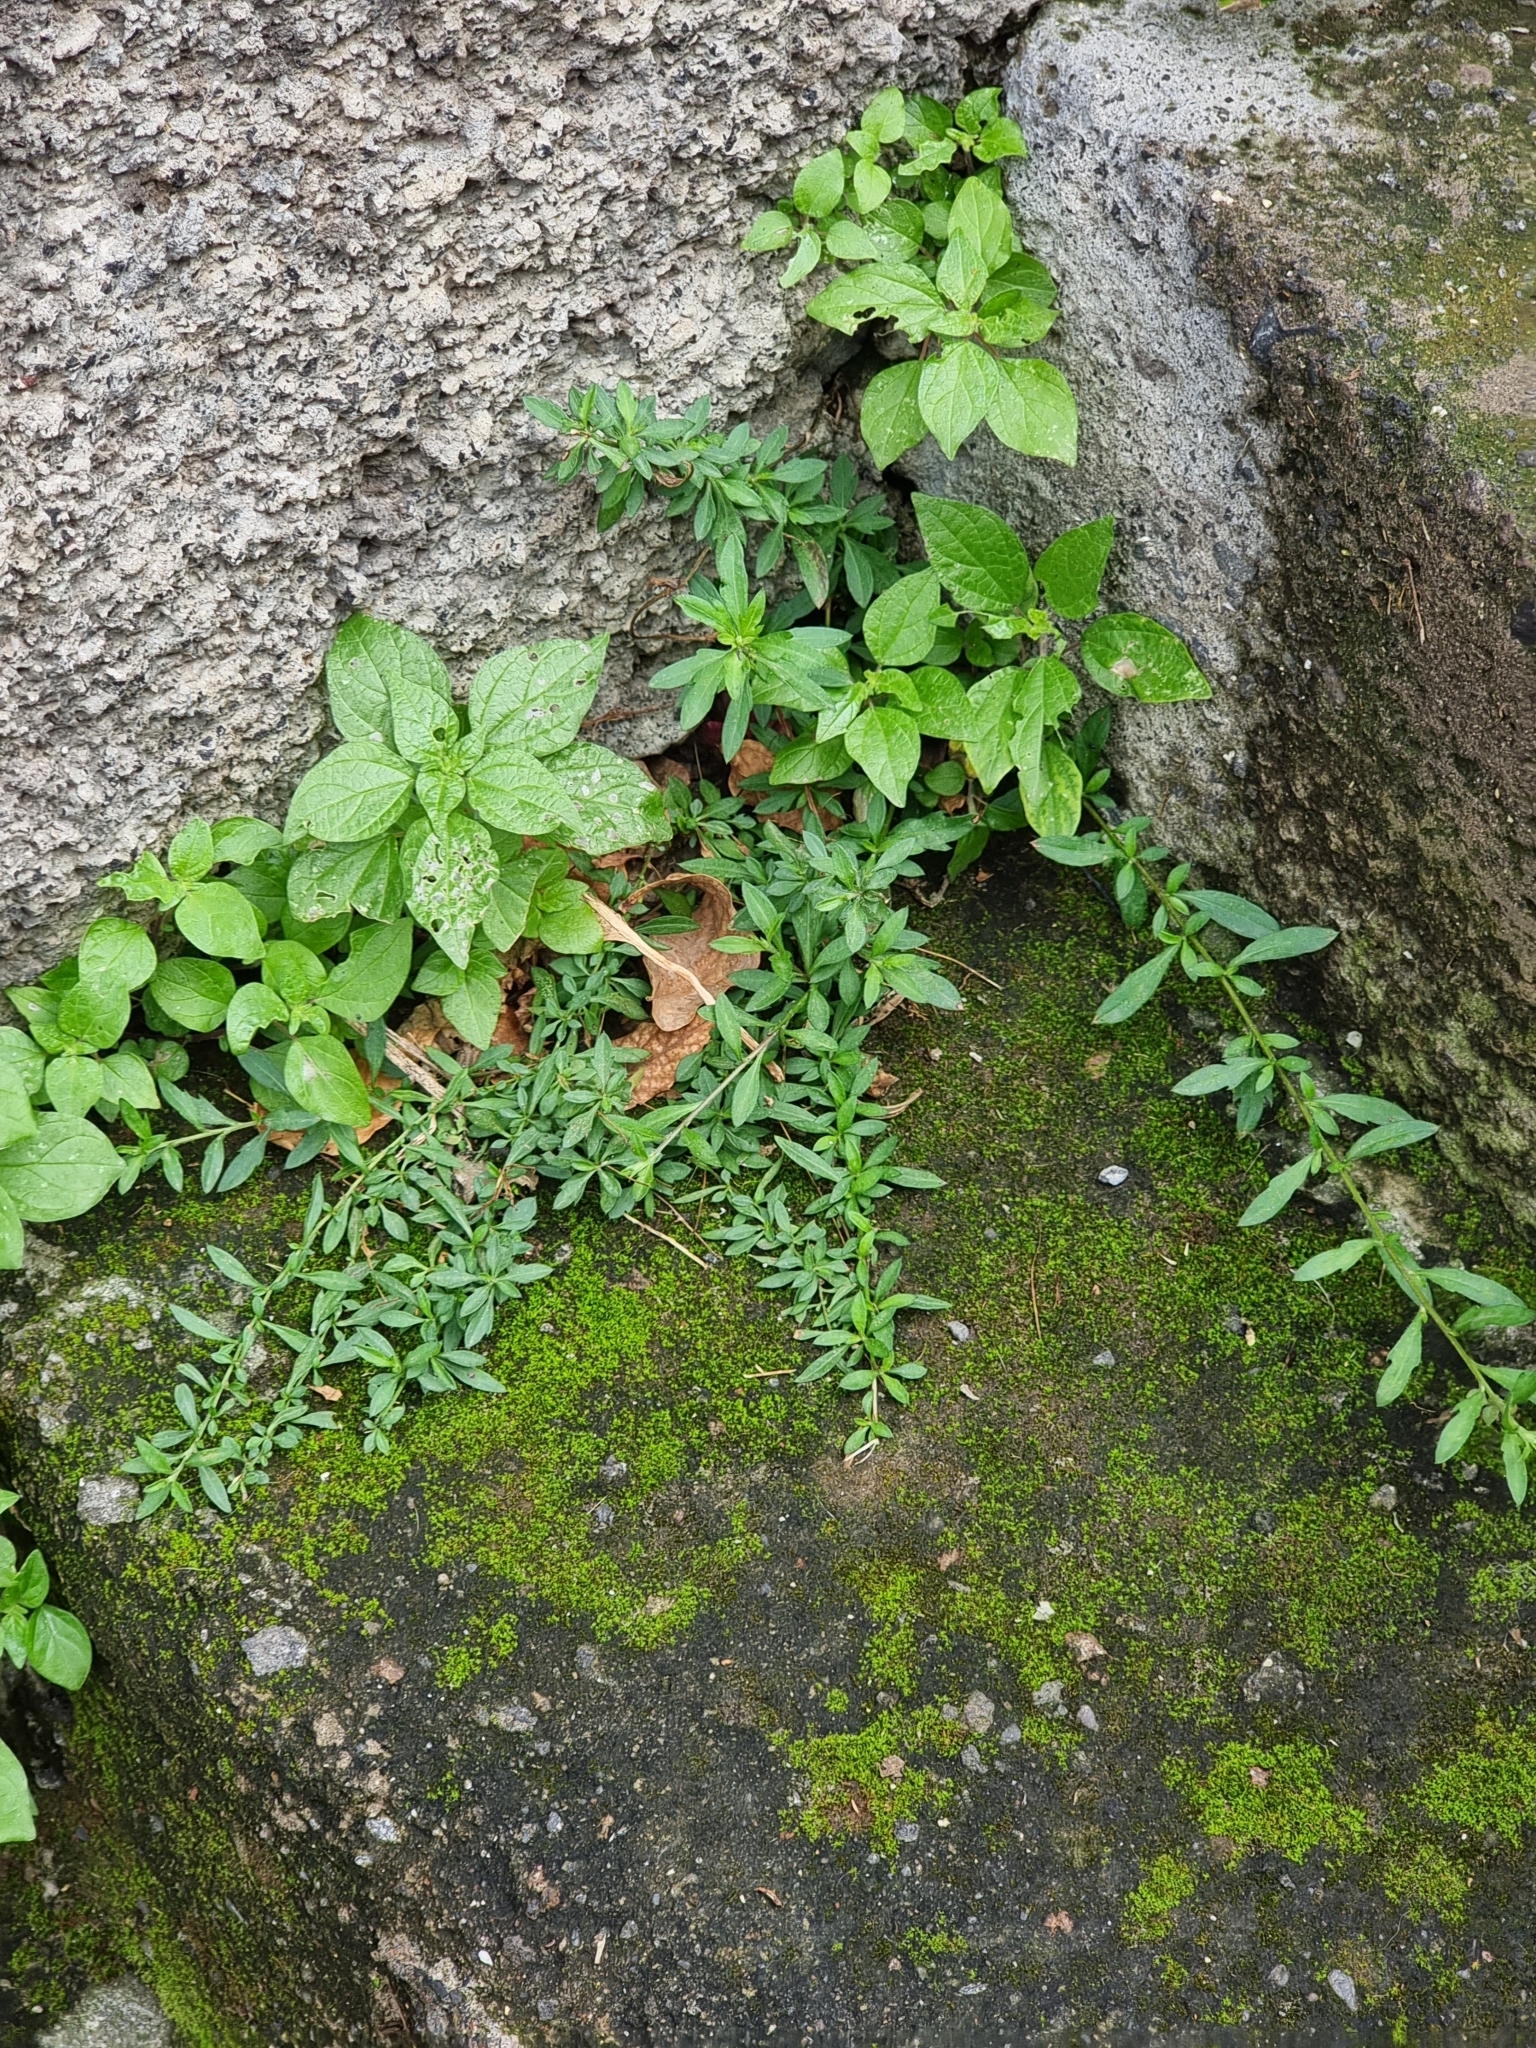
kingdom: Plantae
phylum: Tracheophyta
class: Magnoliopsida
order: Asterales
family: Asteraceae
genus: Erigeron
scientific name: Erigeron karvinskianus
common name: Mexican fleabane
